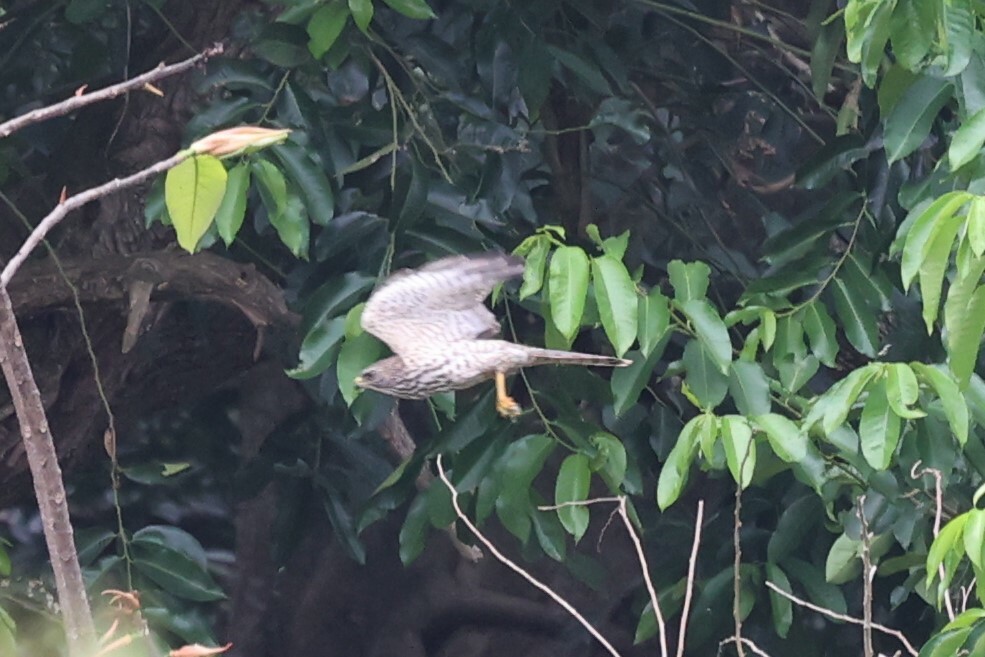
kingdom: Animalia
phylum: Chordata
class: Aves
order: Accipitriformes
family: Accipitridae
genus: Micronisus
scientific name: Micronisus gabar
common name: Gabar goshawk
